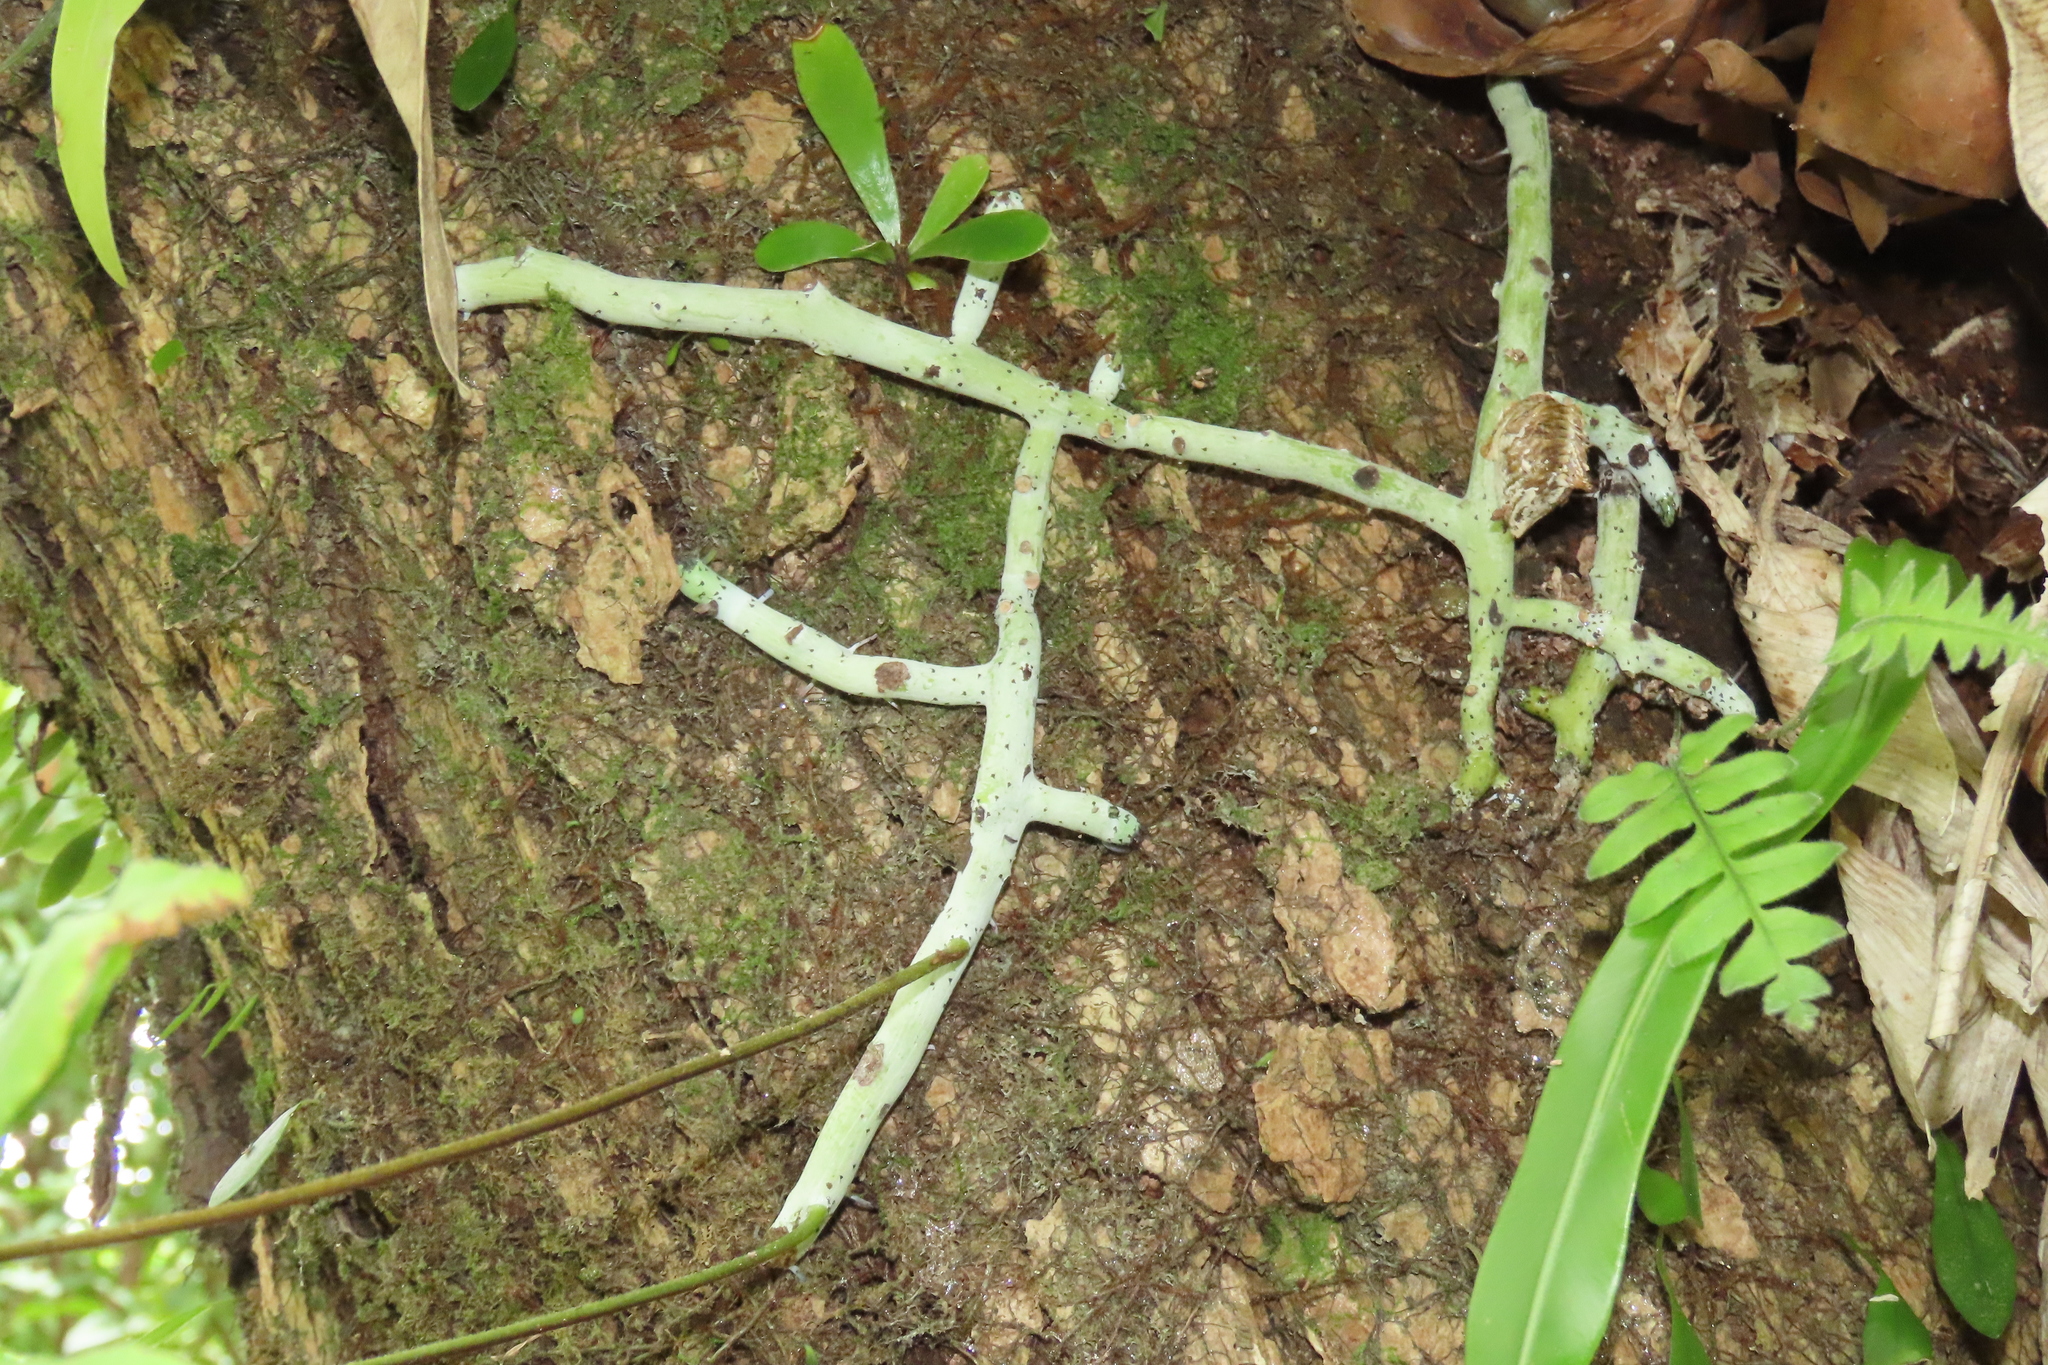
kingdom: Plantae
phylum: Tracheophyta
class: Polypodiopsida
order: Polypodiales
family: Polypodiaceae
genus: Goniophlebium
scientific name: Goniophlebium formosanum
